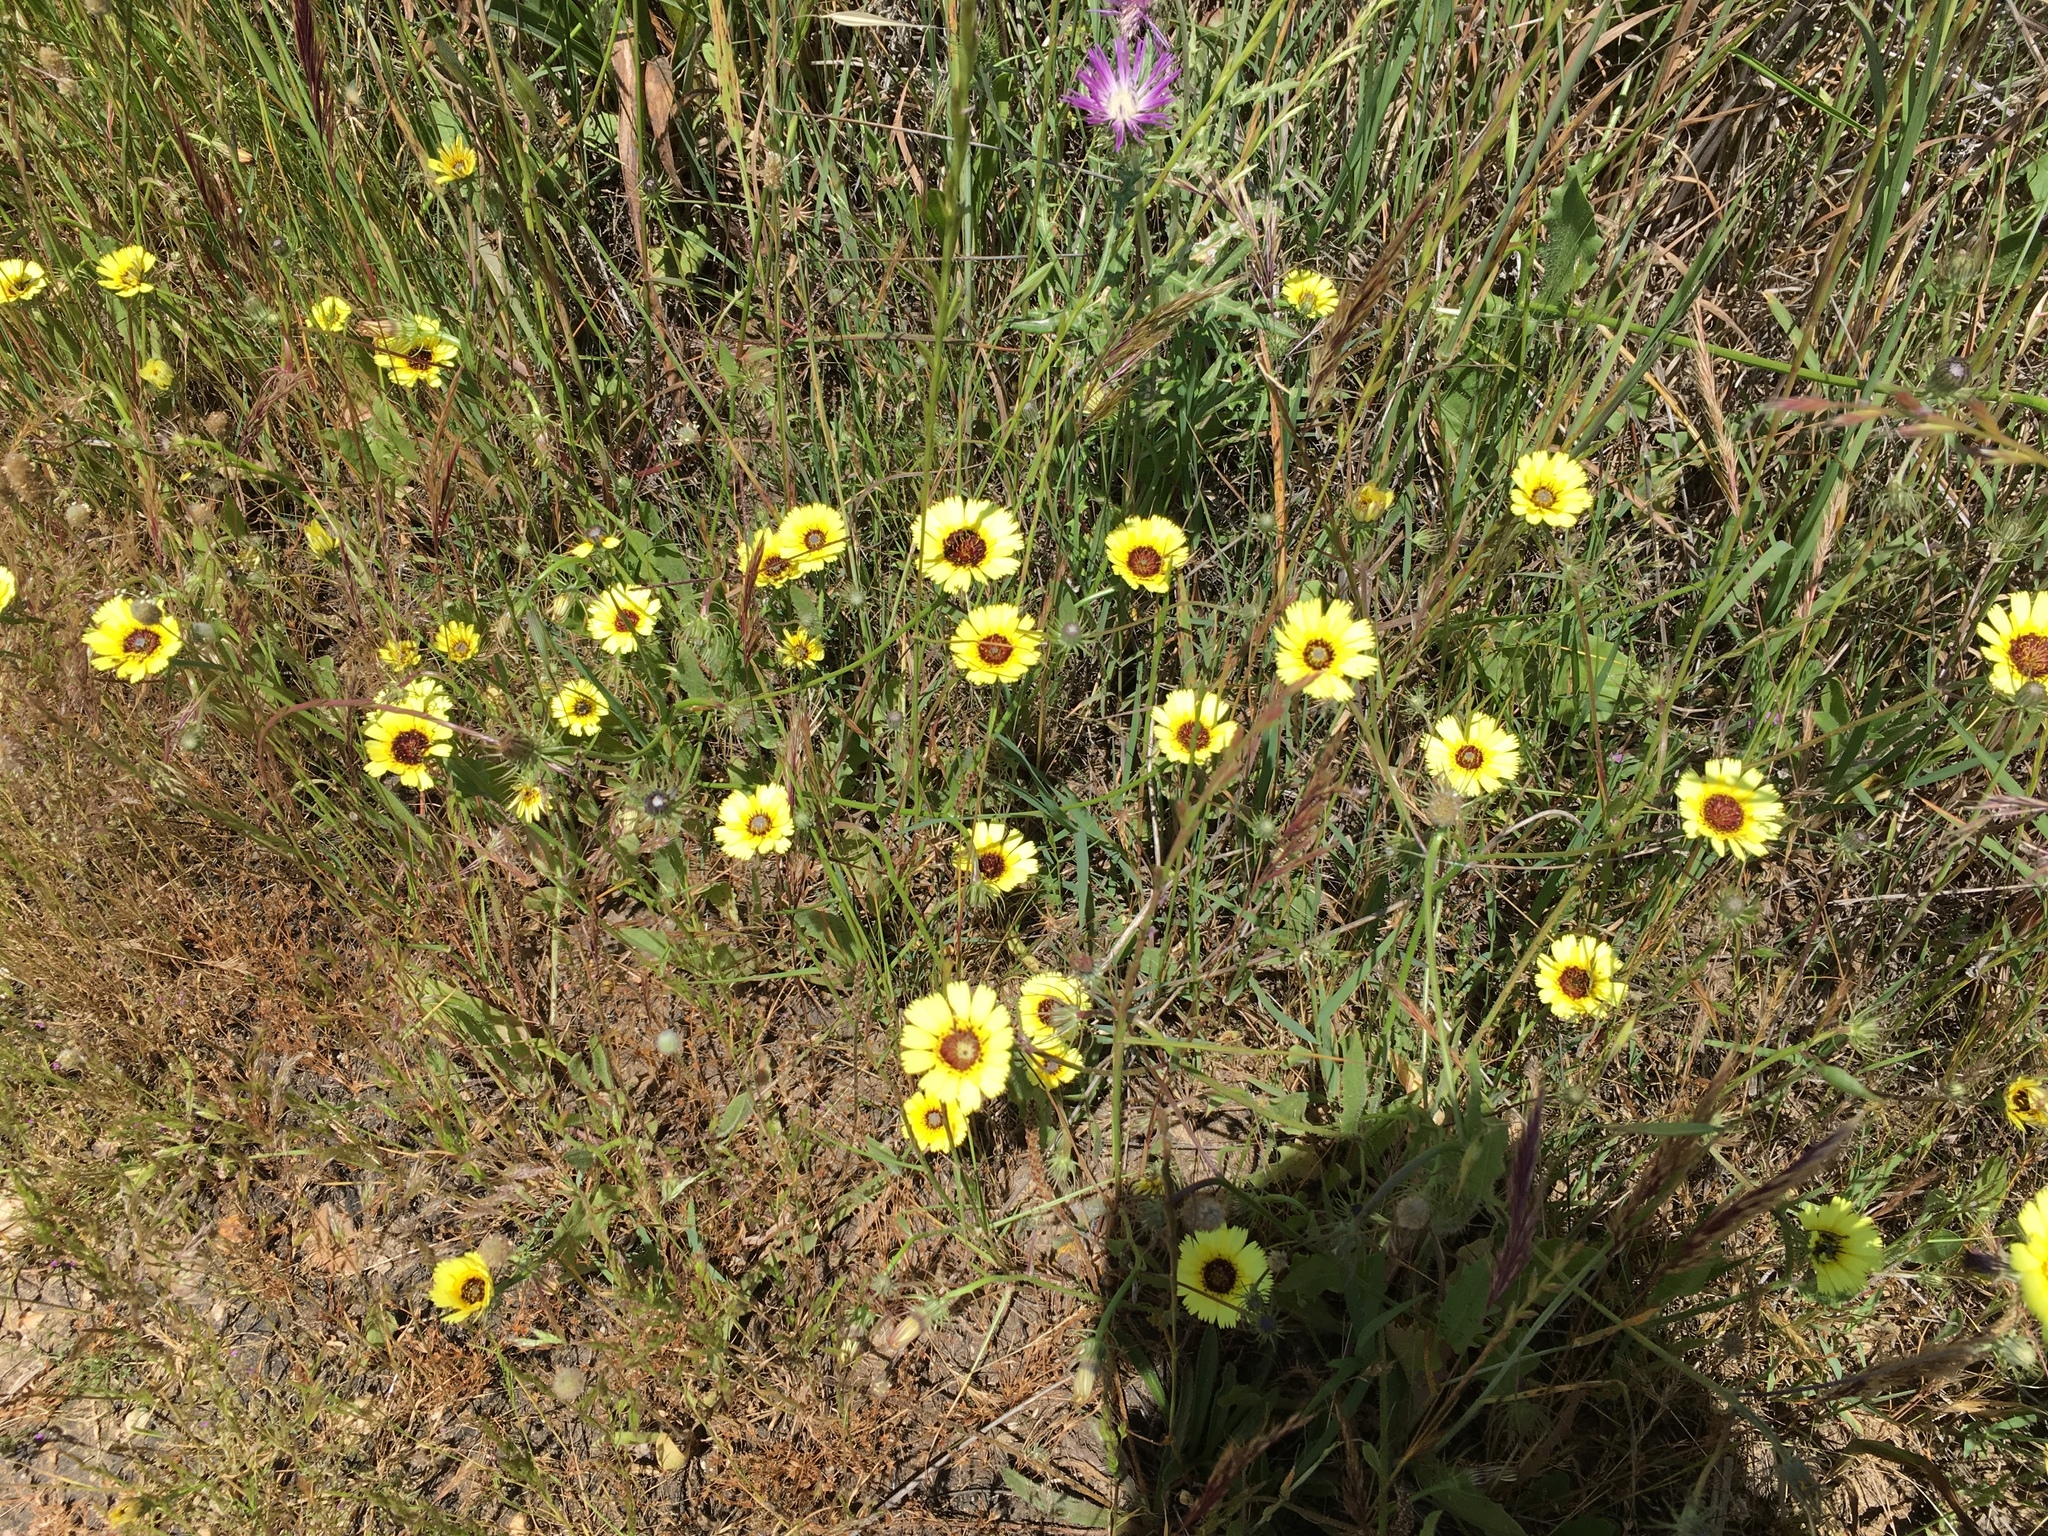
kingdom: Plantae
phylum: Tracheophyta
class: Magnoliopsida
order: Asterales
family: Asteraceae
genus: Tolpis
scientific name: Tolpis barbata
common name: Yellow hawkweed
